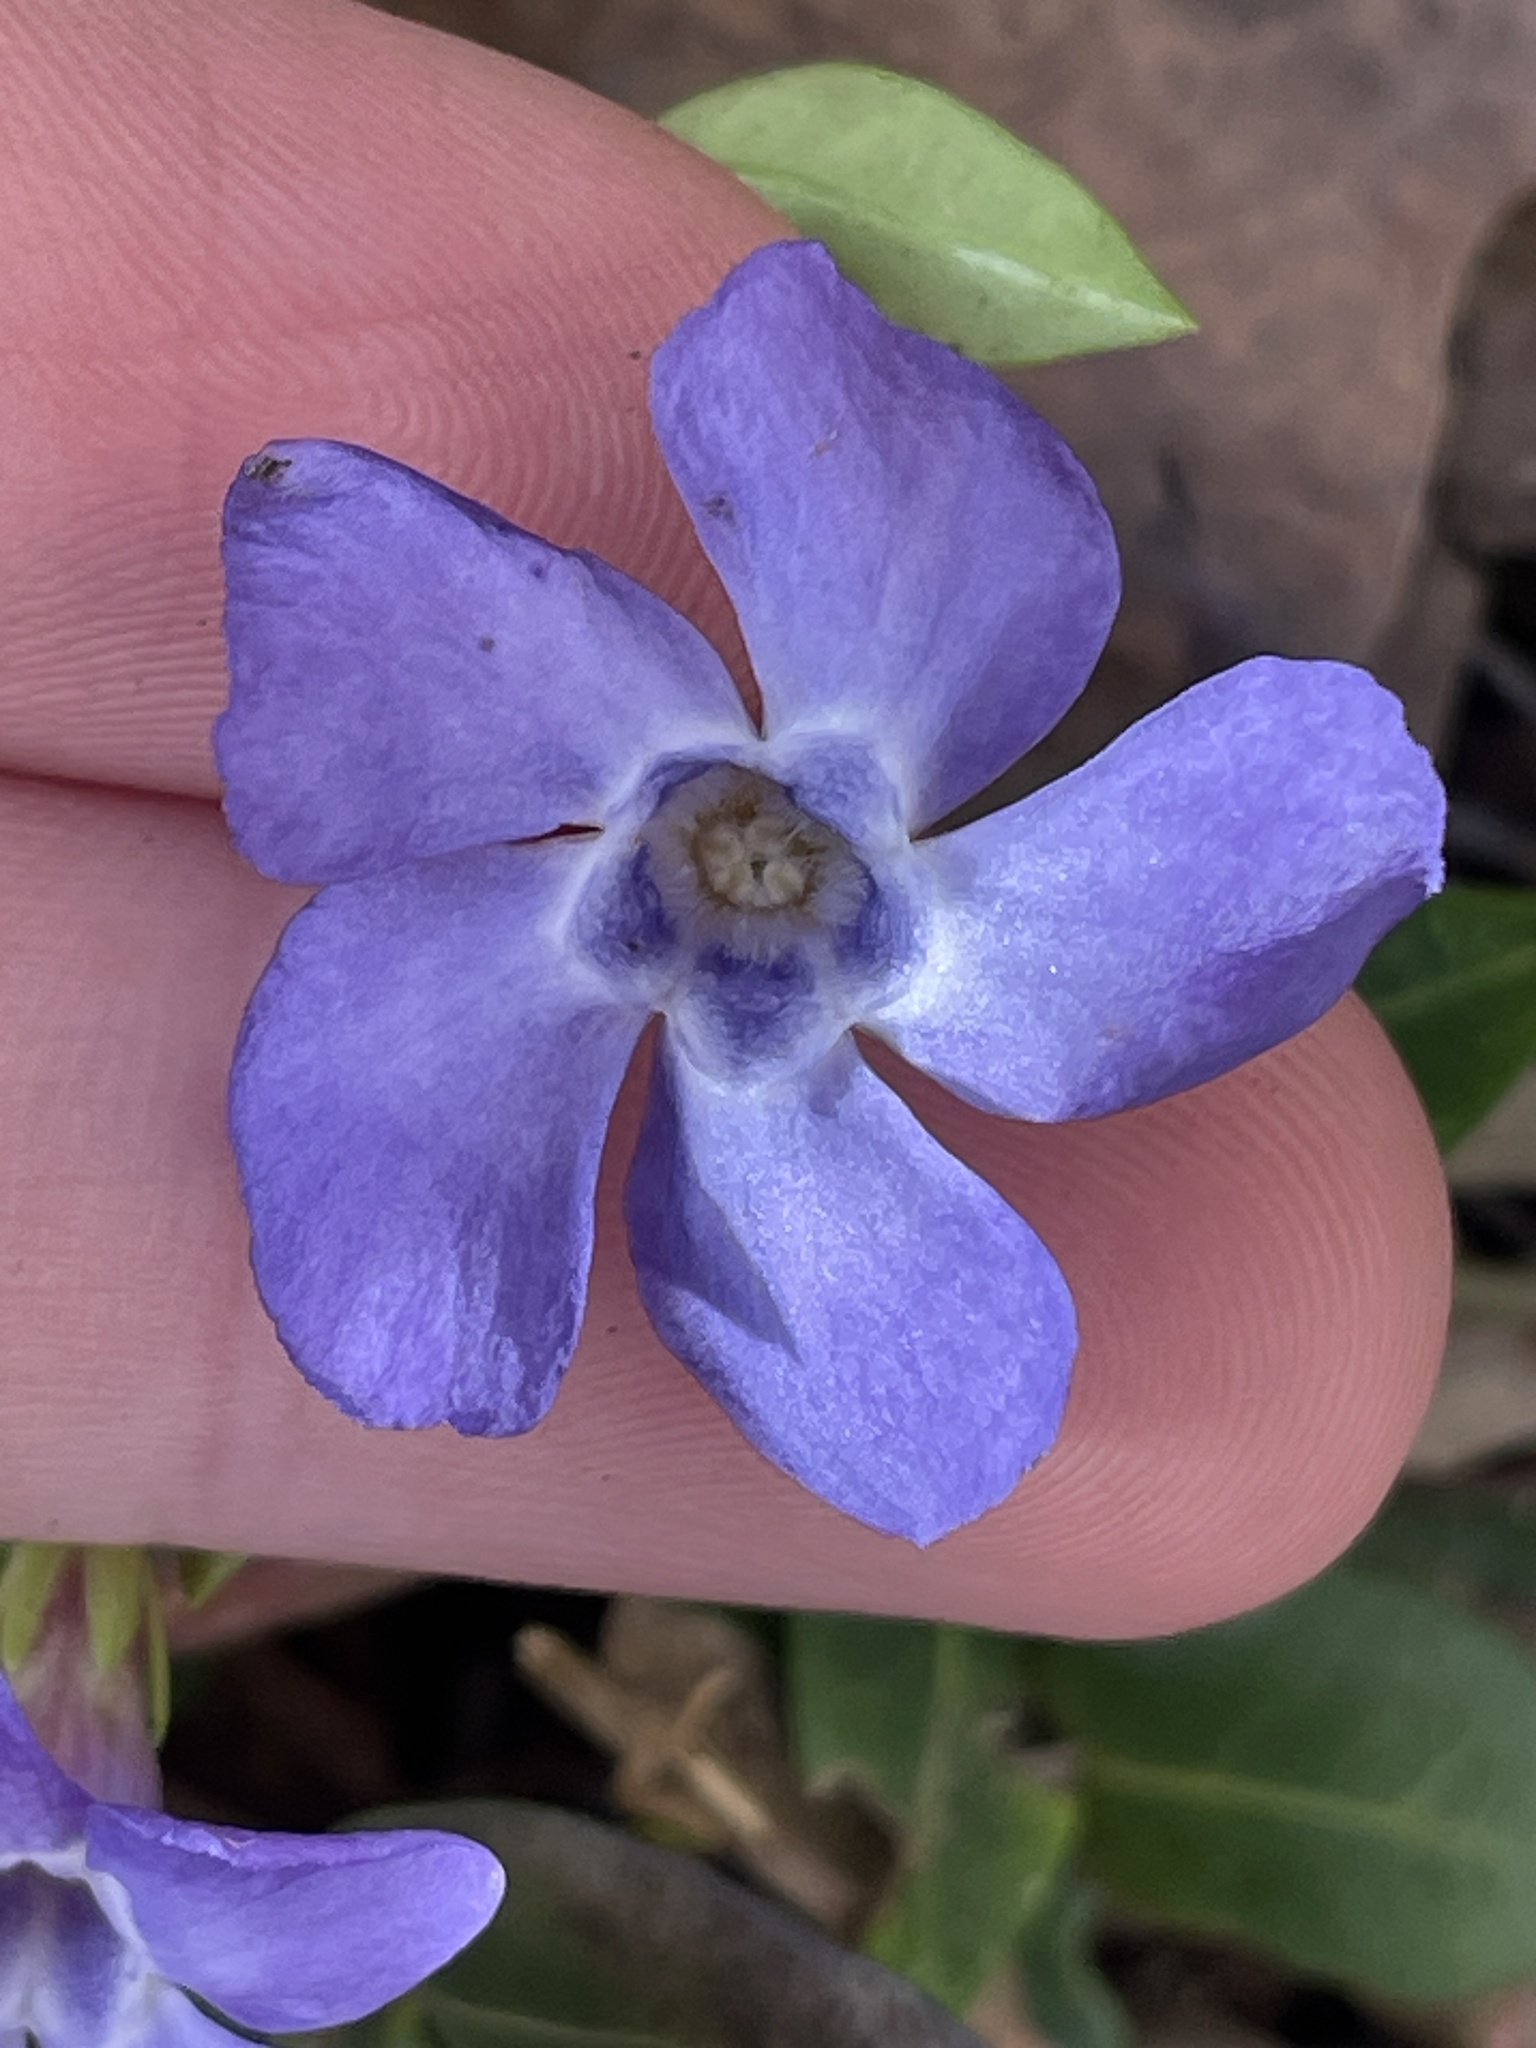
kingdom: Plantae
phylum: Tracheophyta
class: Magnoliopsida
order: Gentianales
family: Apocynaceae
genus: Vinca
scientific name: Vinca minor
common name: Lesser periwinkle
